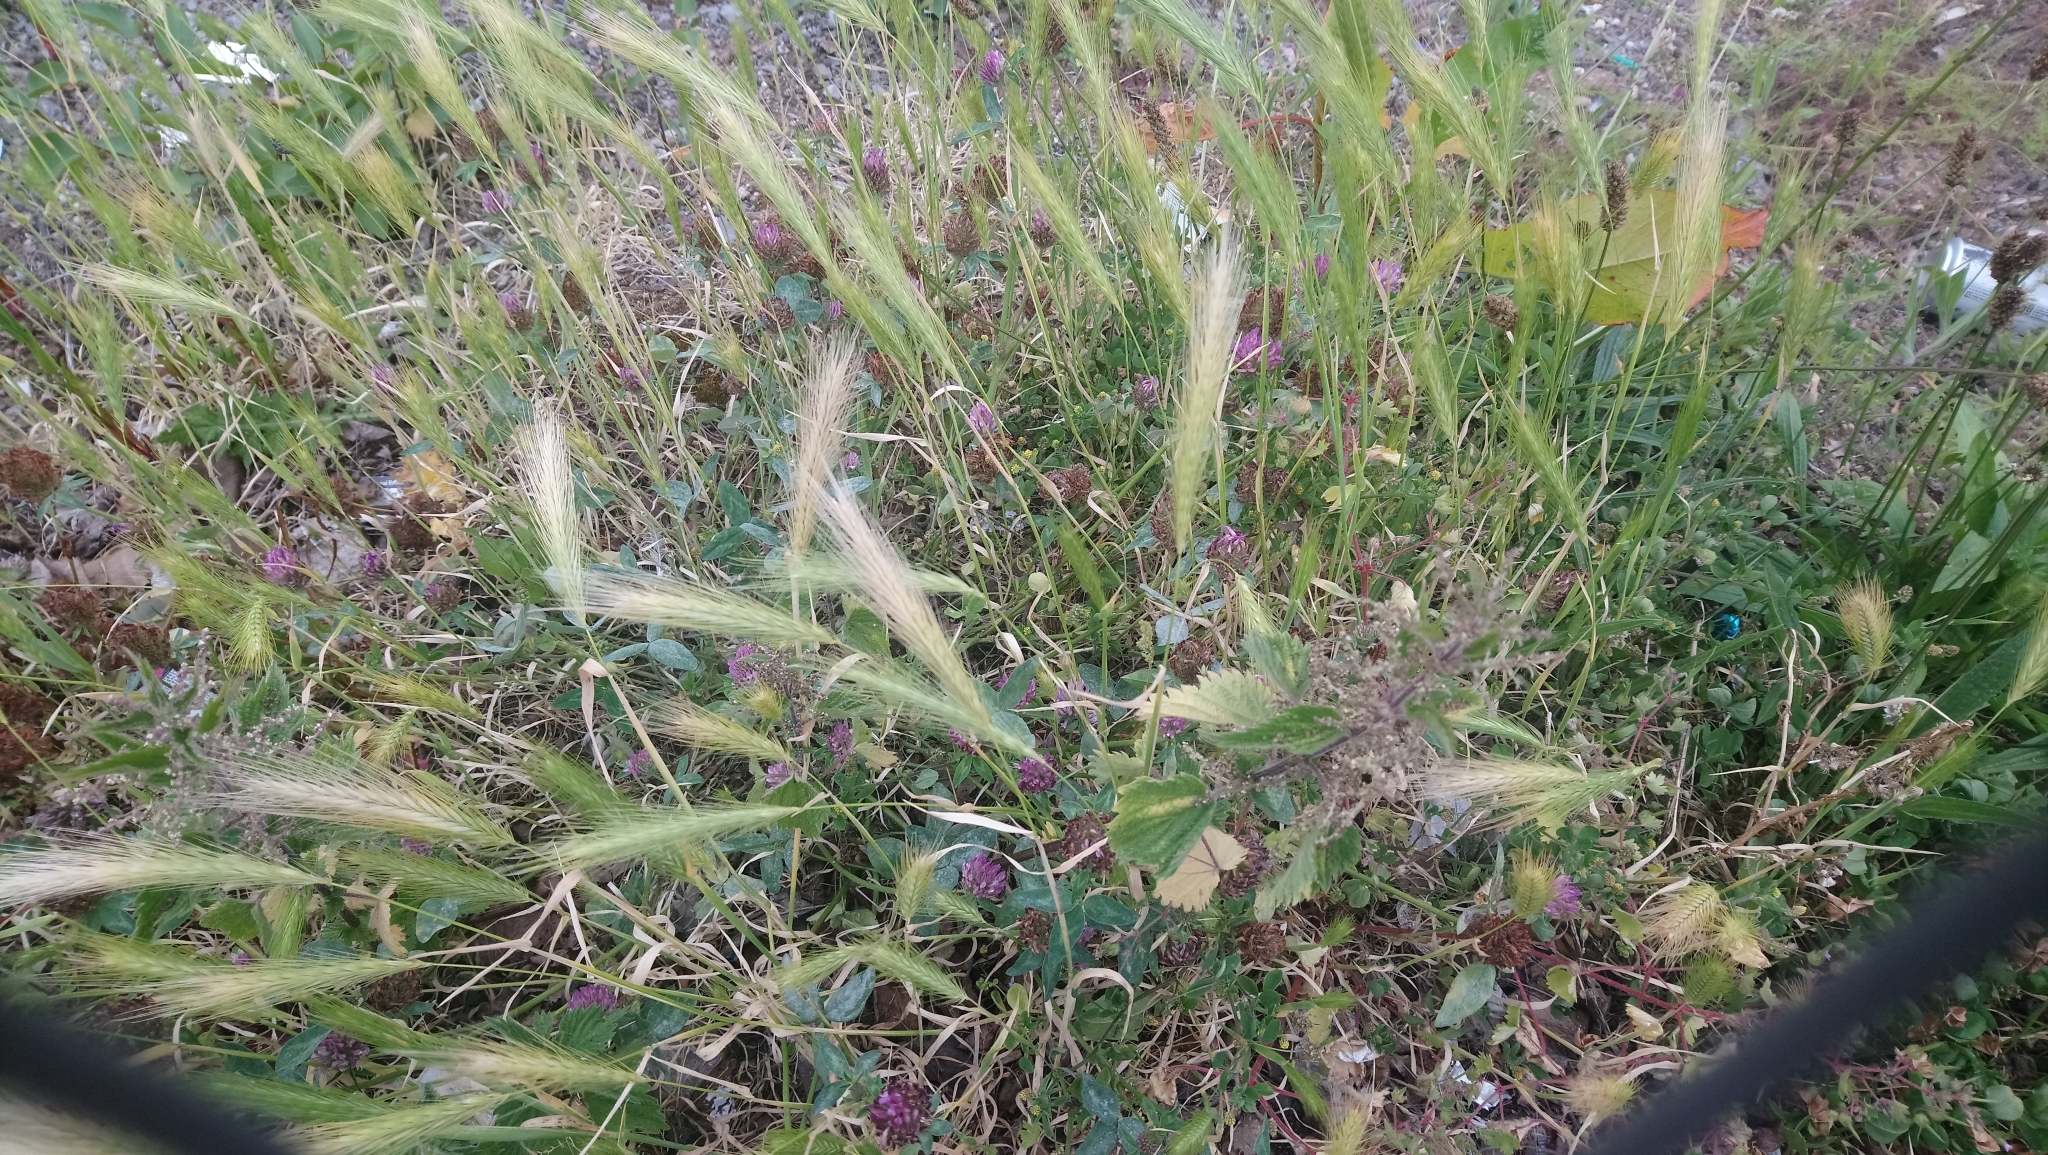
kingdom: Plantae
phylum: Tracheophyta
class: Liliopsida
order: Poales
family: Poaceae
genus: Hordeum
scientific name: Hordeum murinum
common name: Wall barley
